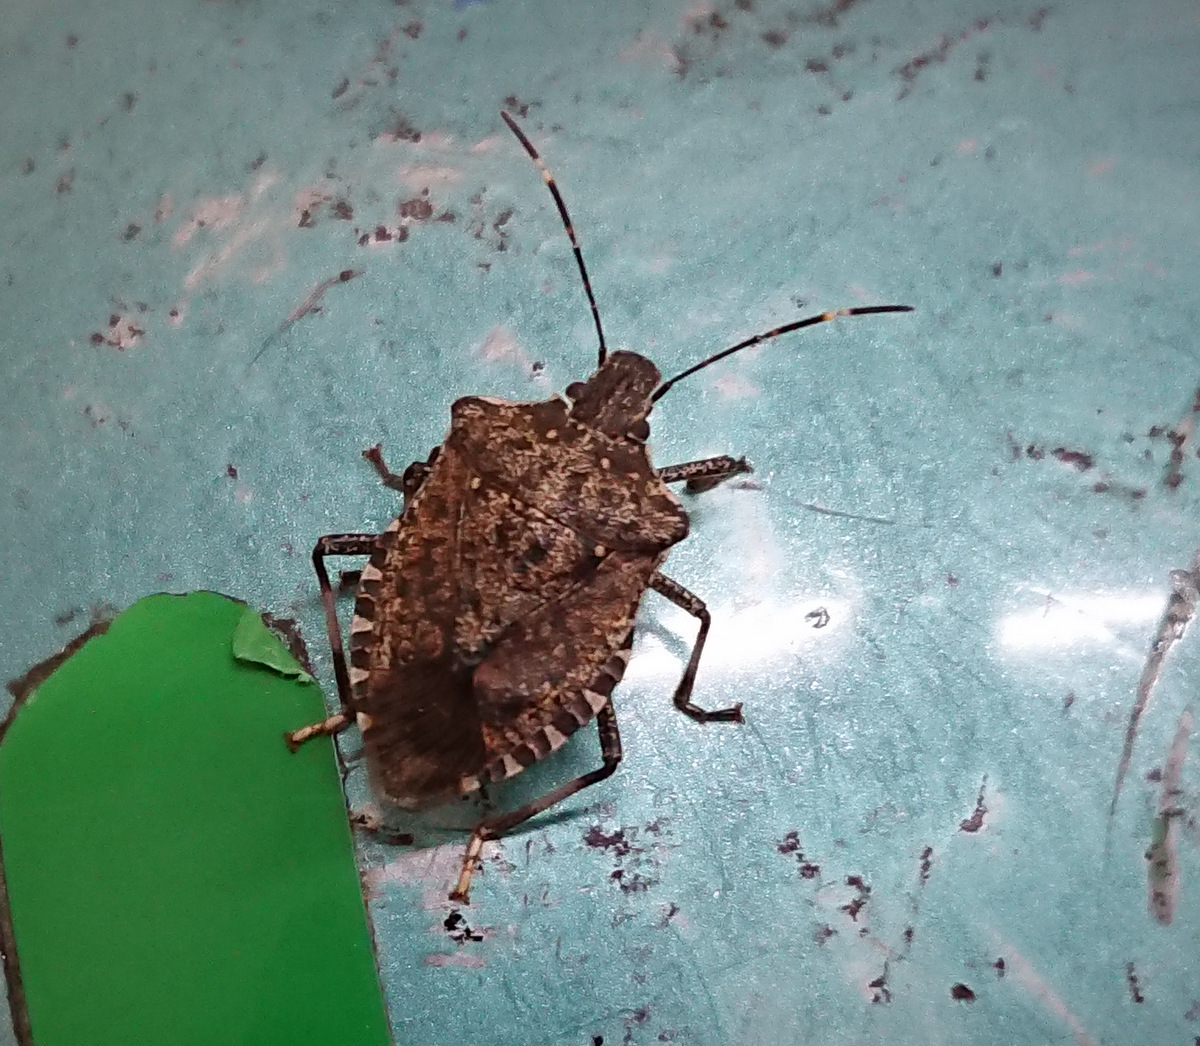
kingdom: Animalia
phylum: Arthropoda
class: Insecta
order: Hemiptera
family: Pentatomidae
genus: Halyomorpha
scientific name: Halyomorpha halys
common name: Brown marmorated stink bug
